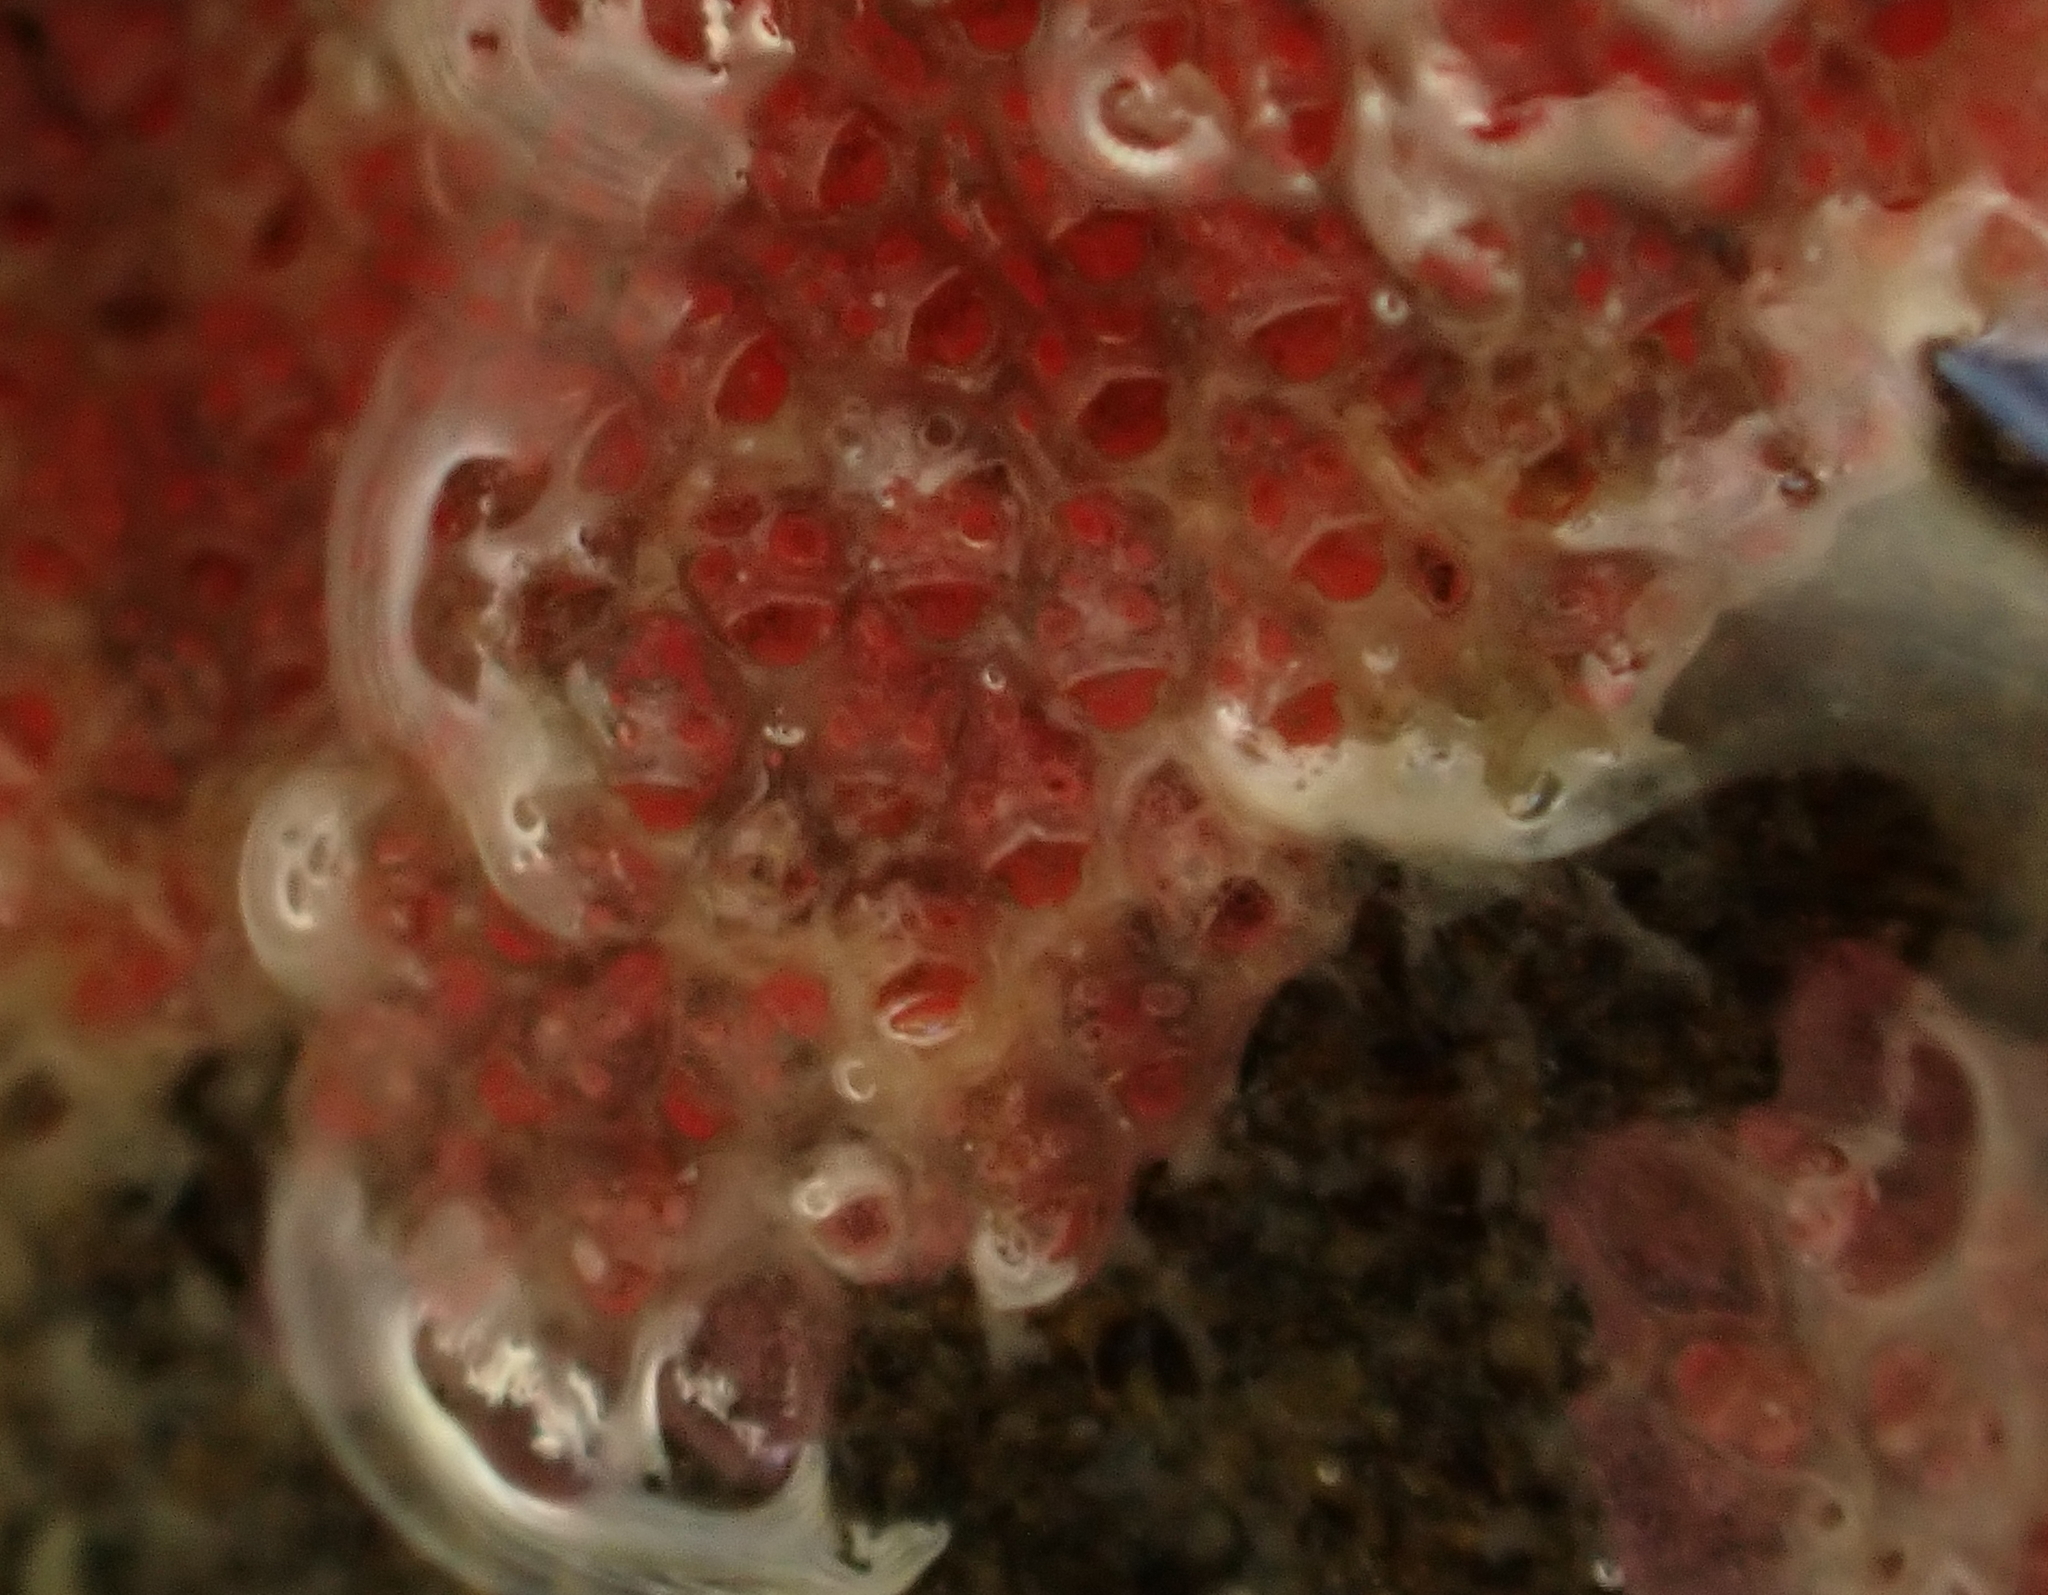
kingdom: Animalia
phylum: Bryozoa
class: Gymnolaemata
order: Cheilostomatida
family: Eurystomellidae
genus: Eurystomella
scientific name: Eurystomella foraminigera
